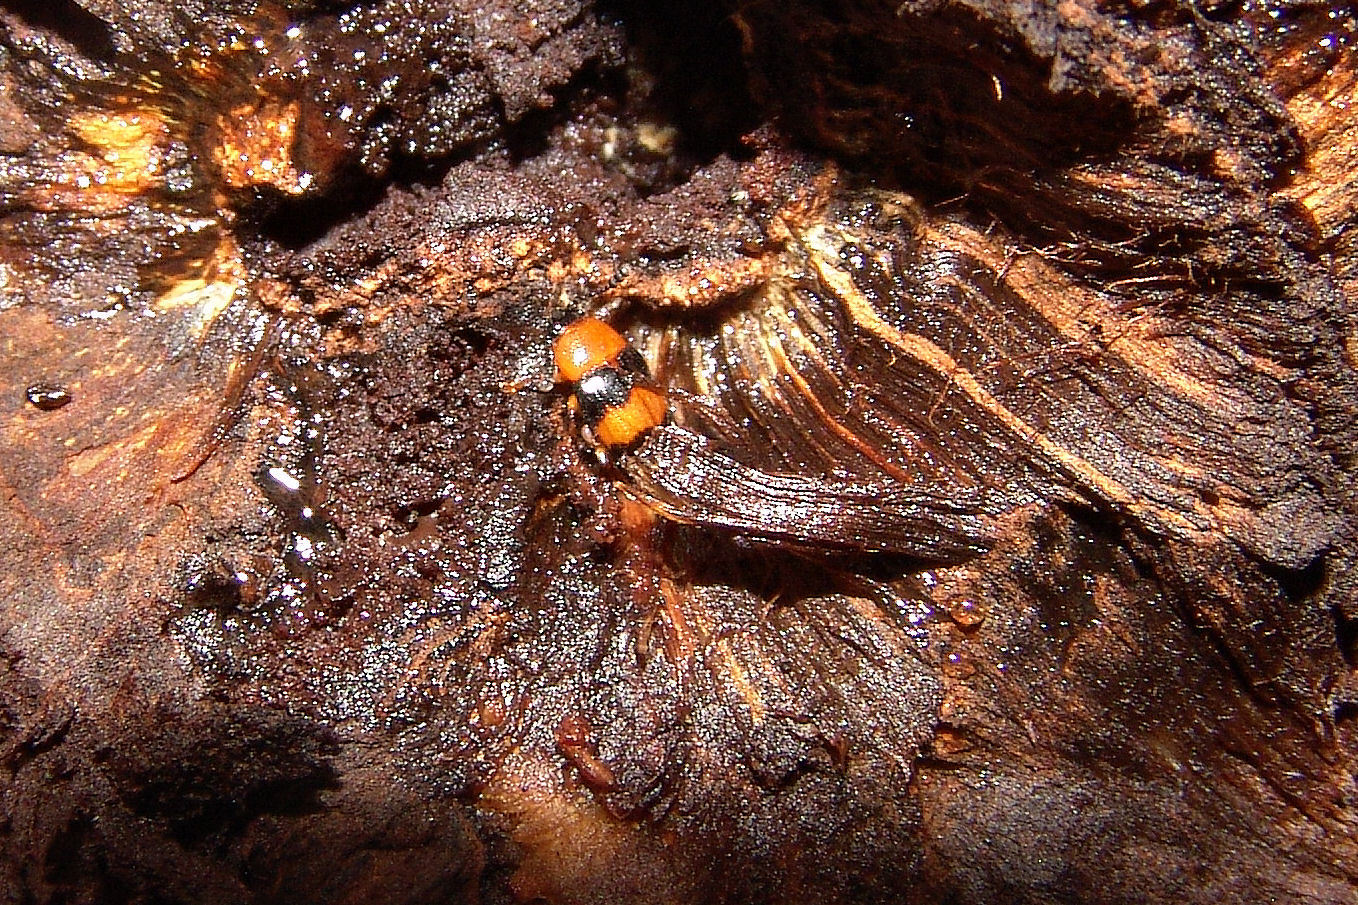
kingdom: Animalia
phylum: Arthropoda
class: Insecta
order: Coleoptera
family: Erotylidae
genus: Triplax
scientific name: Triplax festiva
